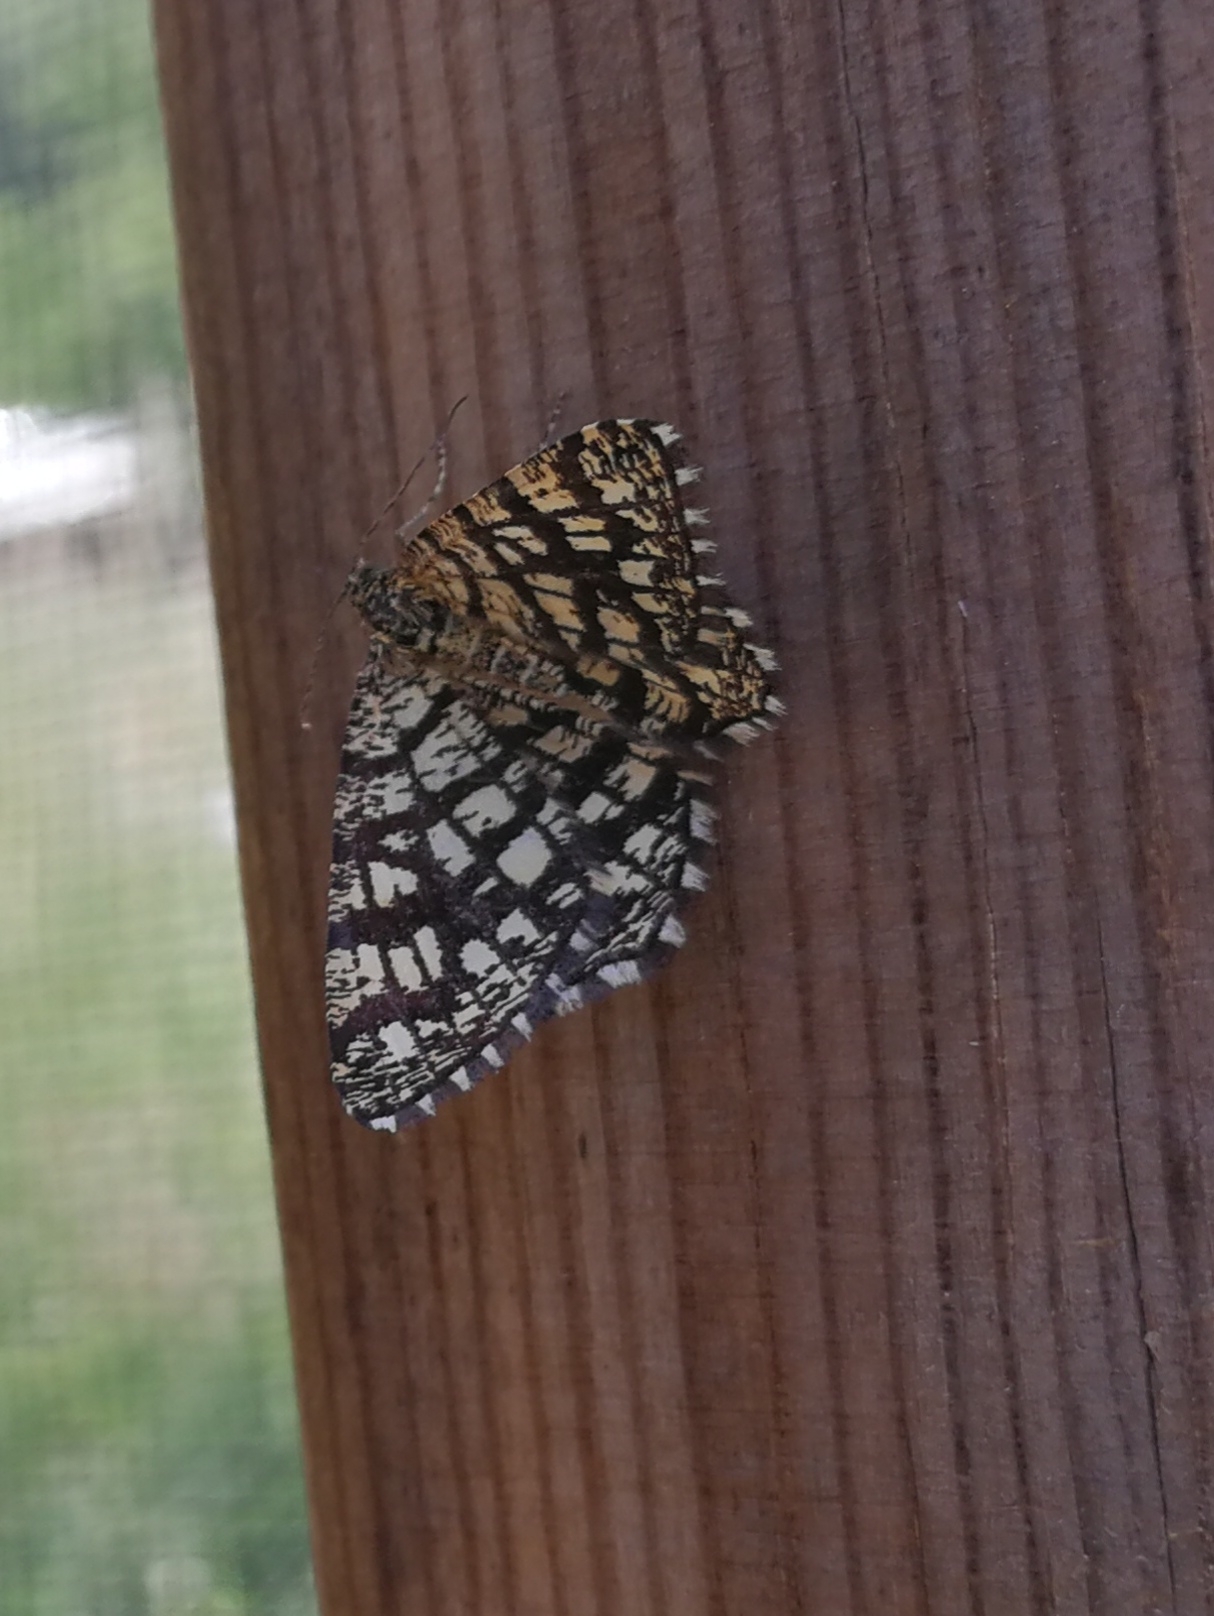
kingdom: Animalia
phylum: Arthropoda
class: Insecta
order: Lepidoptera
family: Geometridae
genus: Chiasmia
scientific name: Chiasmia clathrata
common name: Latticed heath
